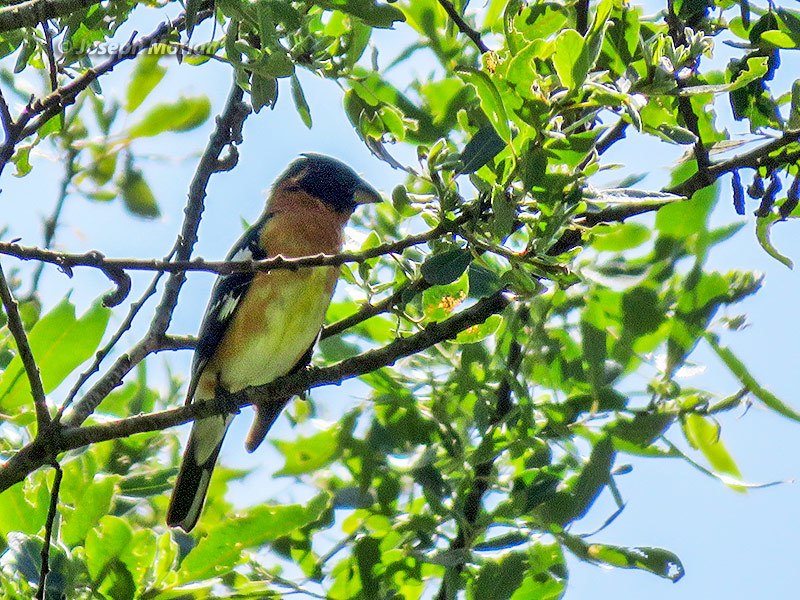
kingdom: Animalia
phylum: Chordata
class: Aves
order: Passeriformes
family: Cardinalidae
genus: Pheucticus
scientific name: Pheucticus melanocephalus
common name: Black-headed grosbeak
